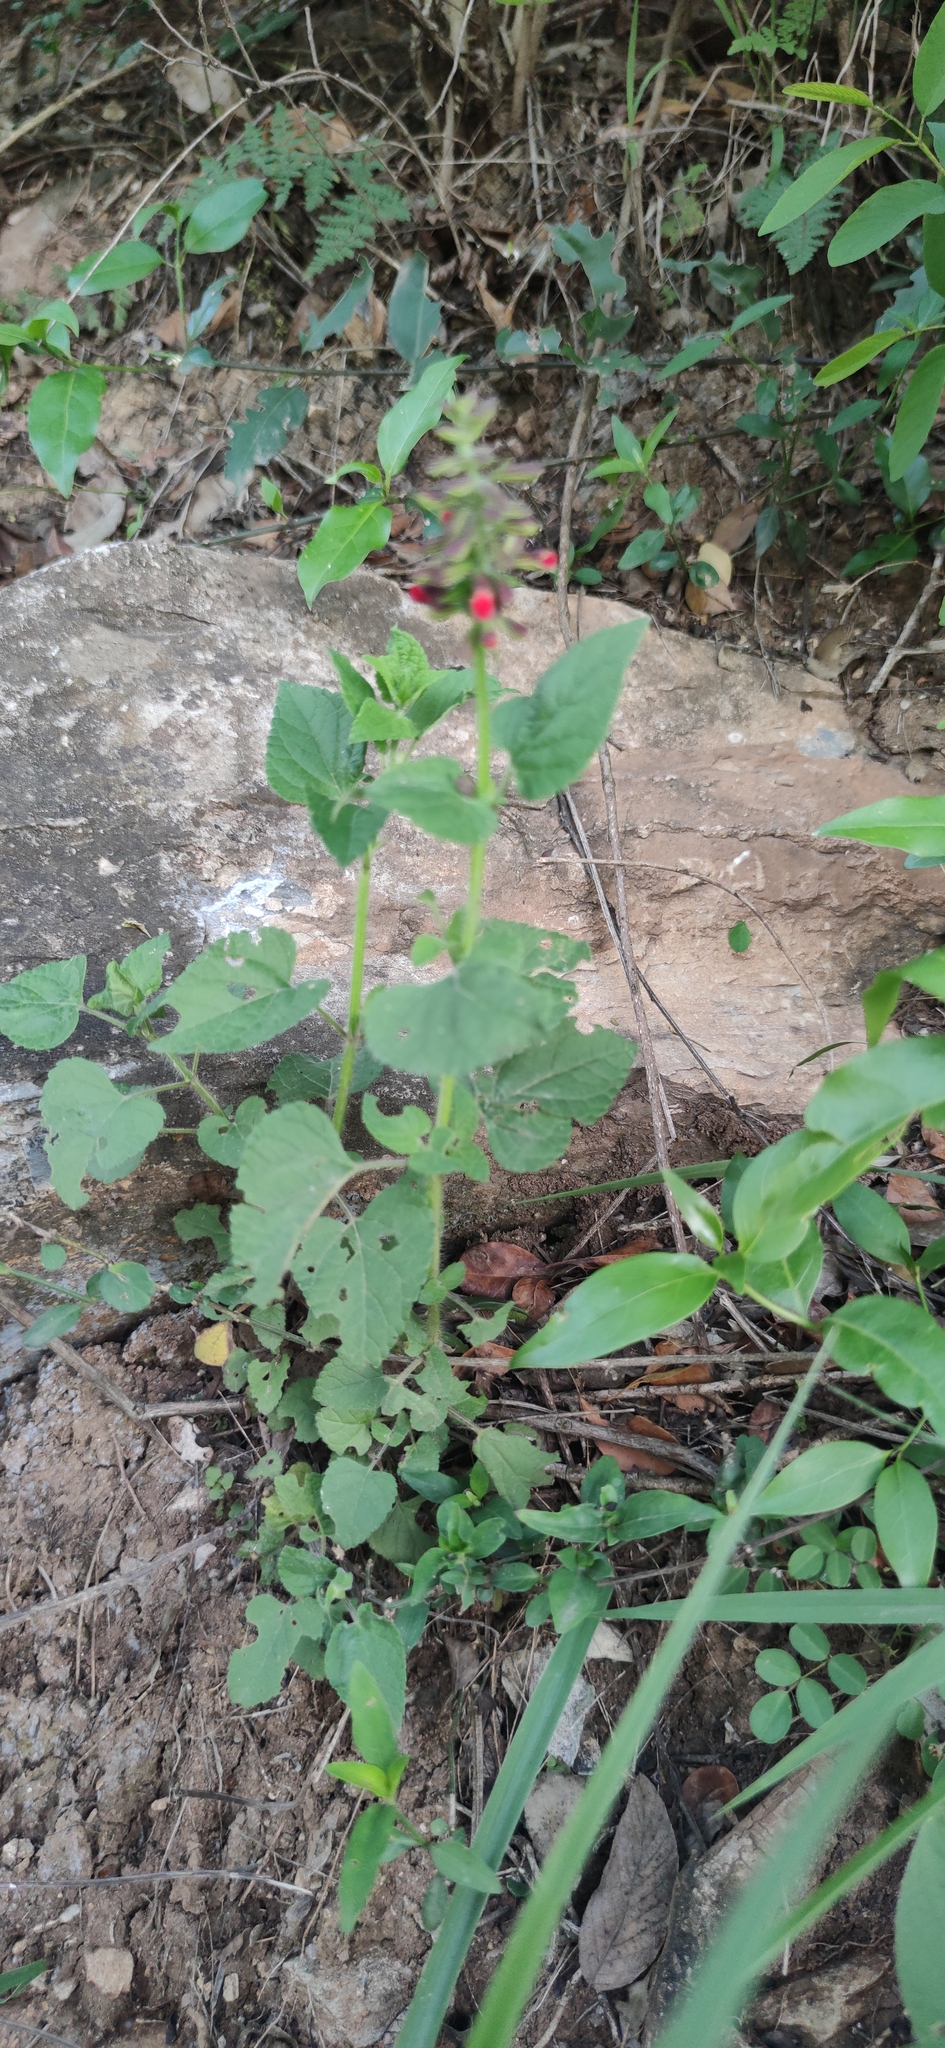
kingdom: Plantae
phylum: Tracheophyta
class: Magnoliopsida
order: Lamiales
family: Lamiaceae
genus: Salvia
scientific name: Salvia coccinea
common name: Blood sage
